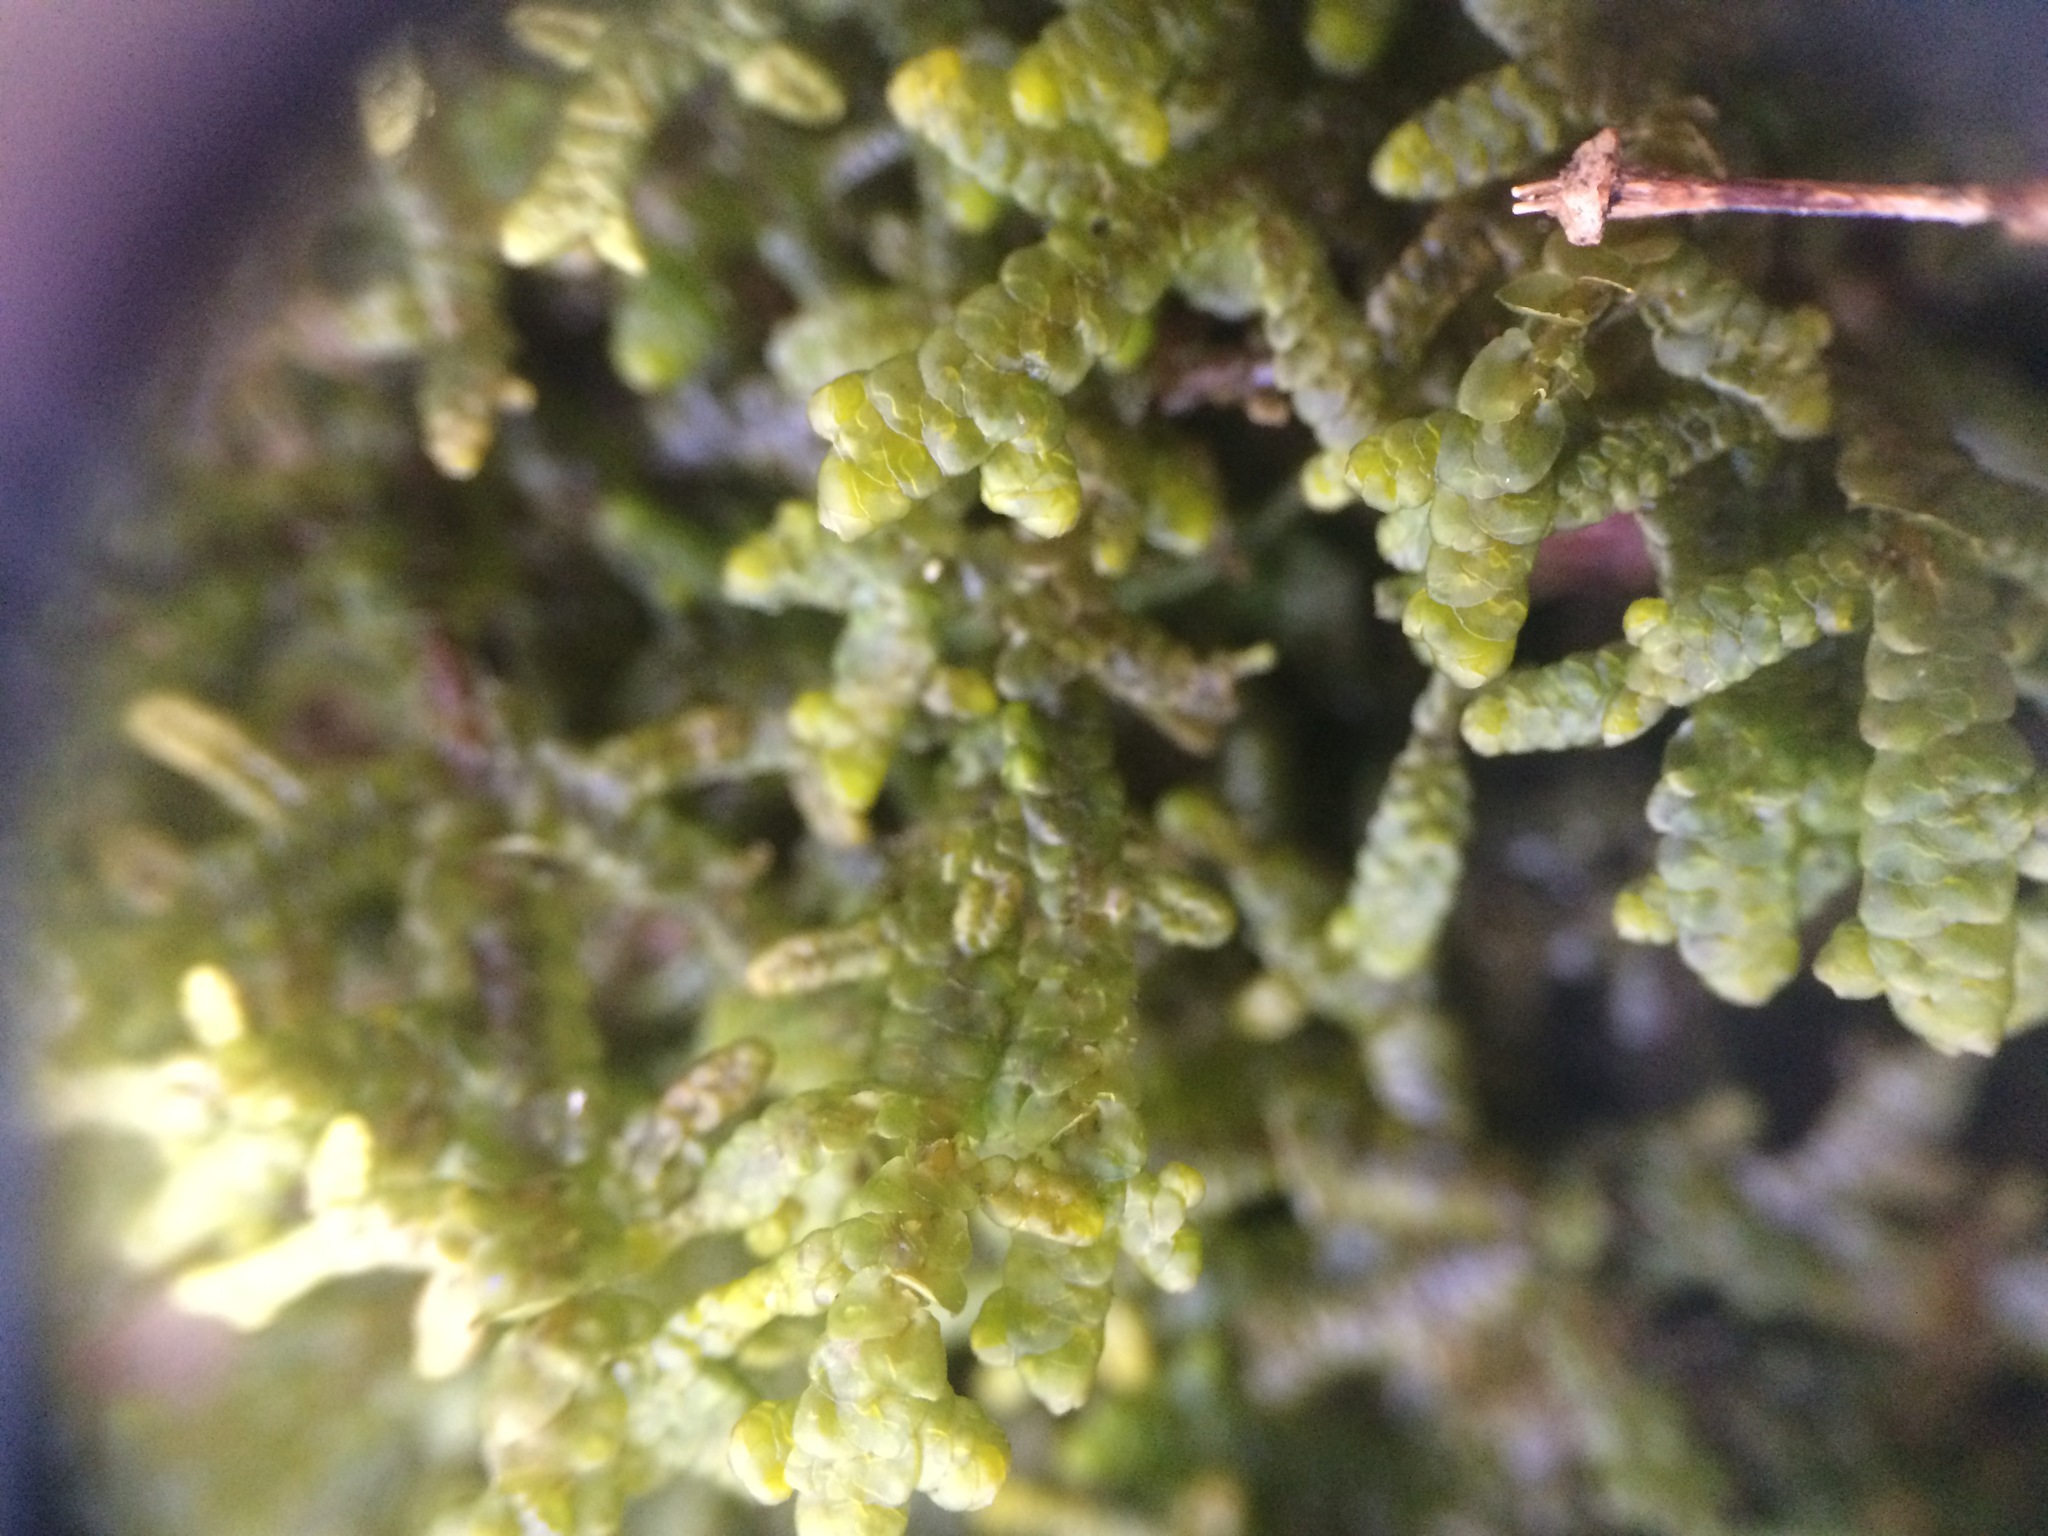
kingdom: Plantae
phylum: Marchantiophyta
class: Jungermanniopsida
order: Porellales
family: Porellaceae
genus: Porella
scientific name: Porella platyphylla
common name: Wall scalewort
